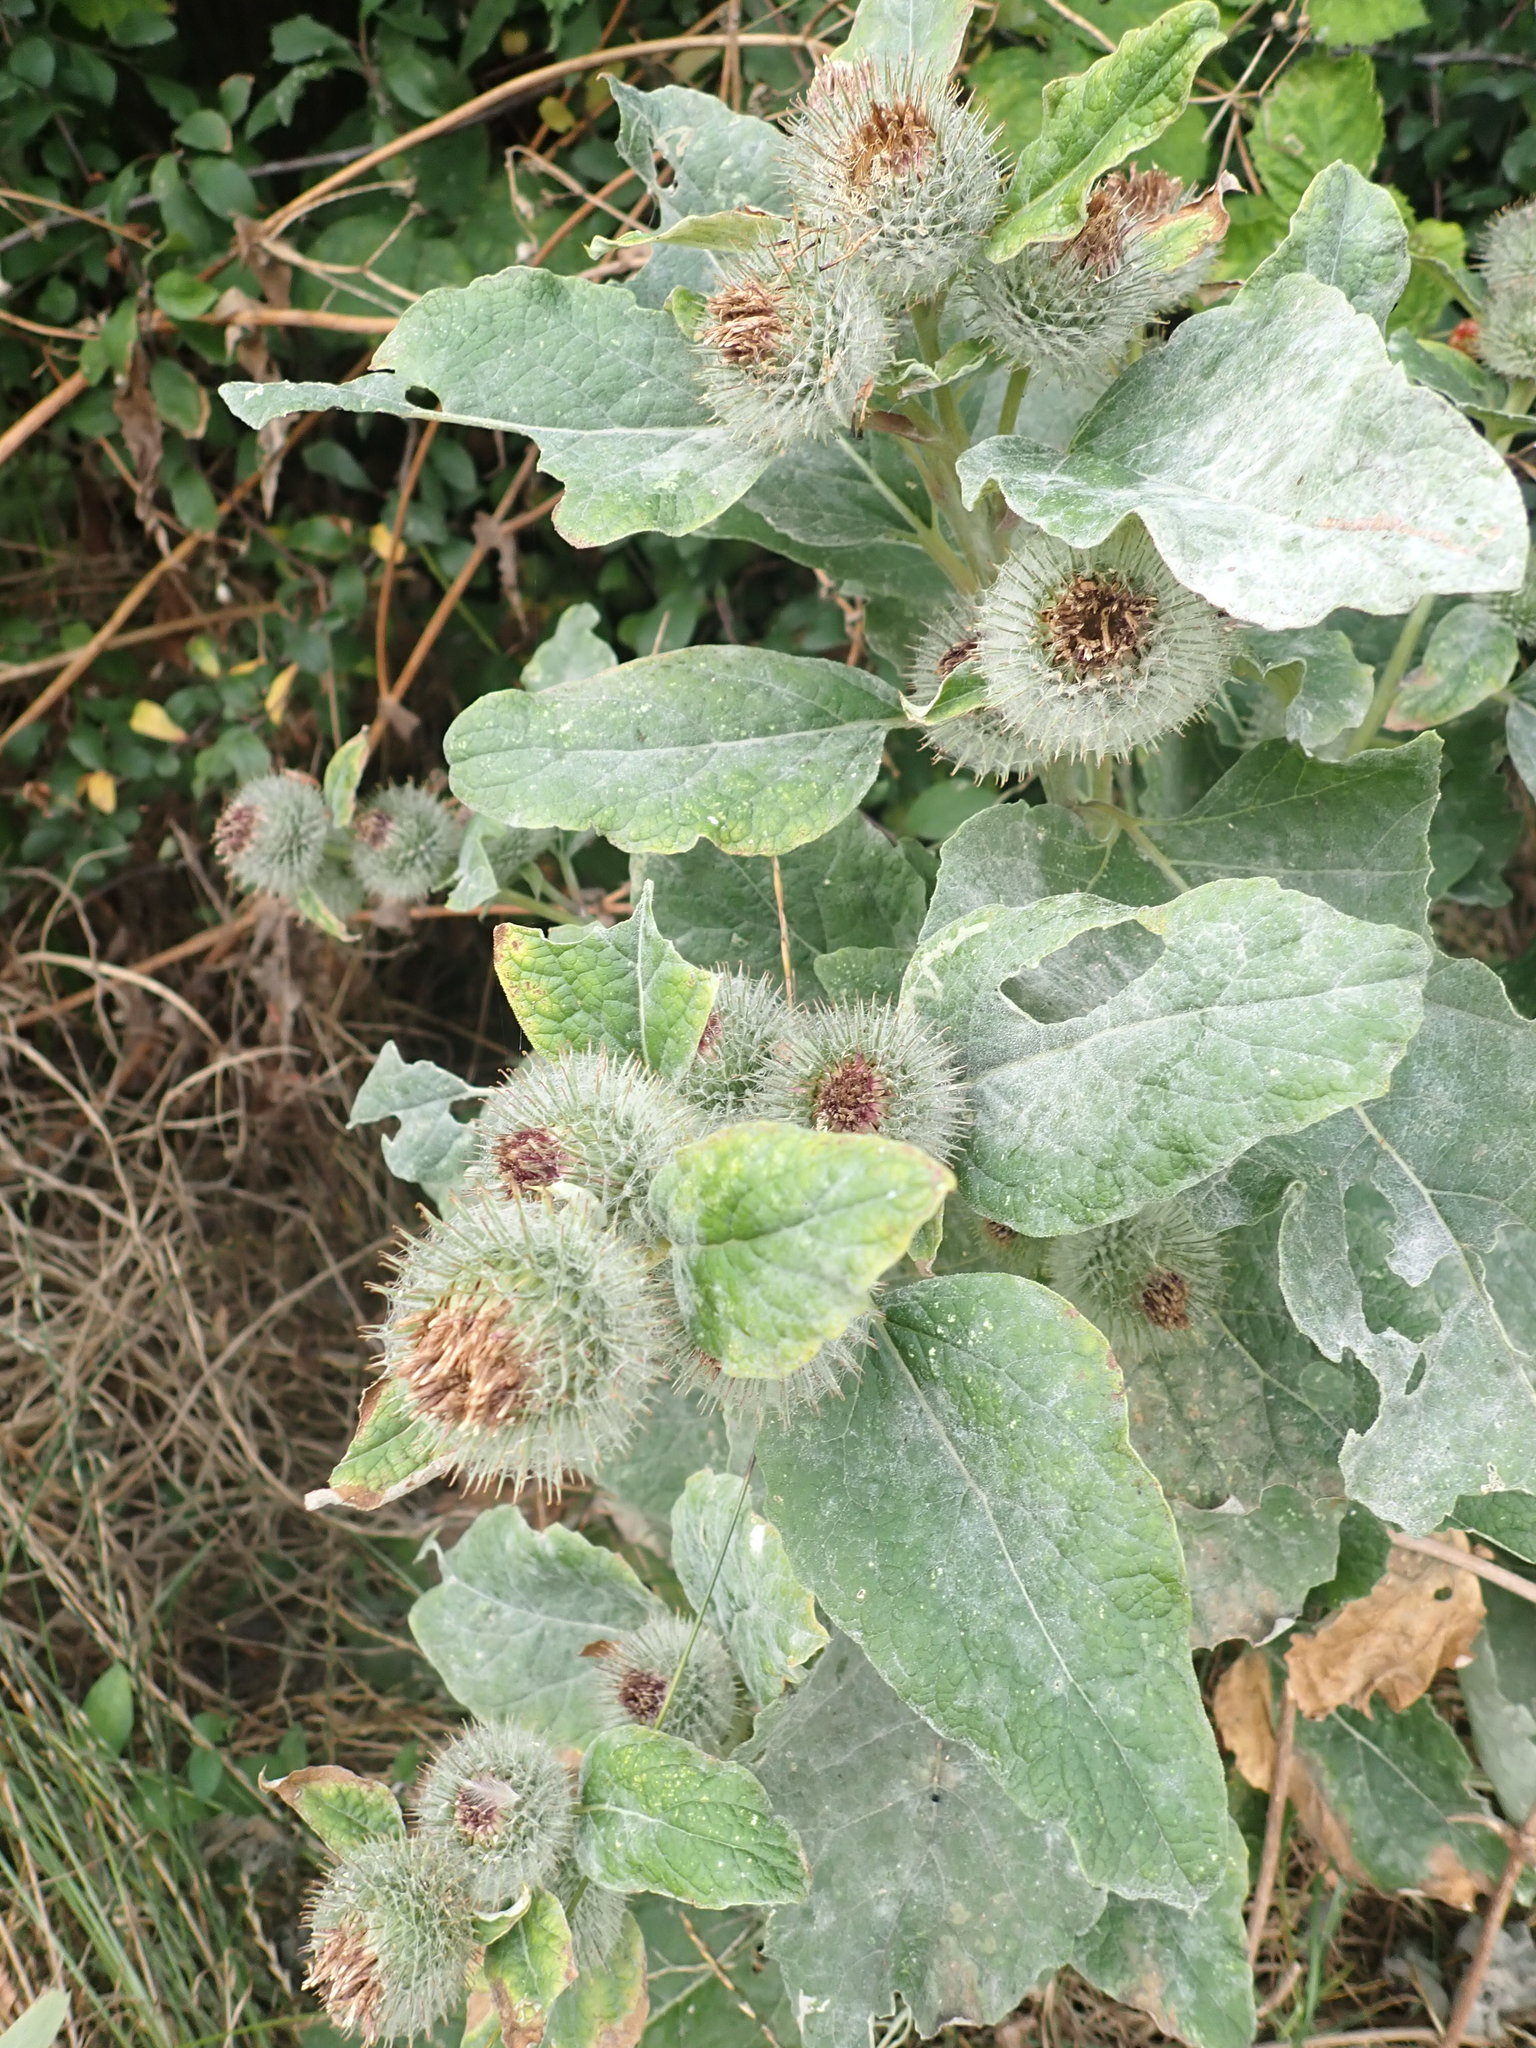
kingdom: Plantae
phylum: Tracheophyta
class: Magnoliopsida
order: Asterales
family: Asteraceae
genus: Arctium
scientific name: Arctium minus
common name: Lesser burdock
